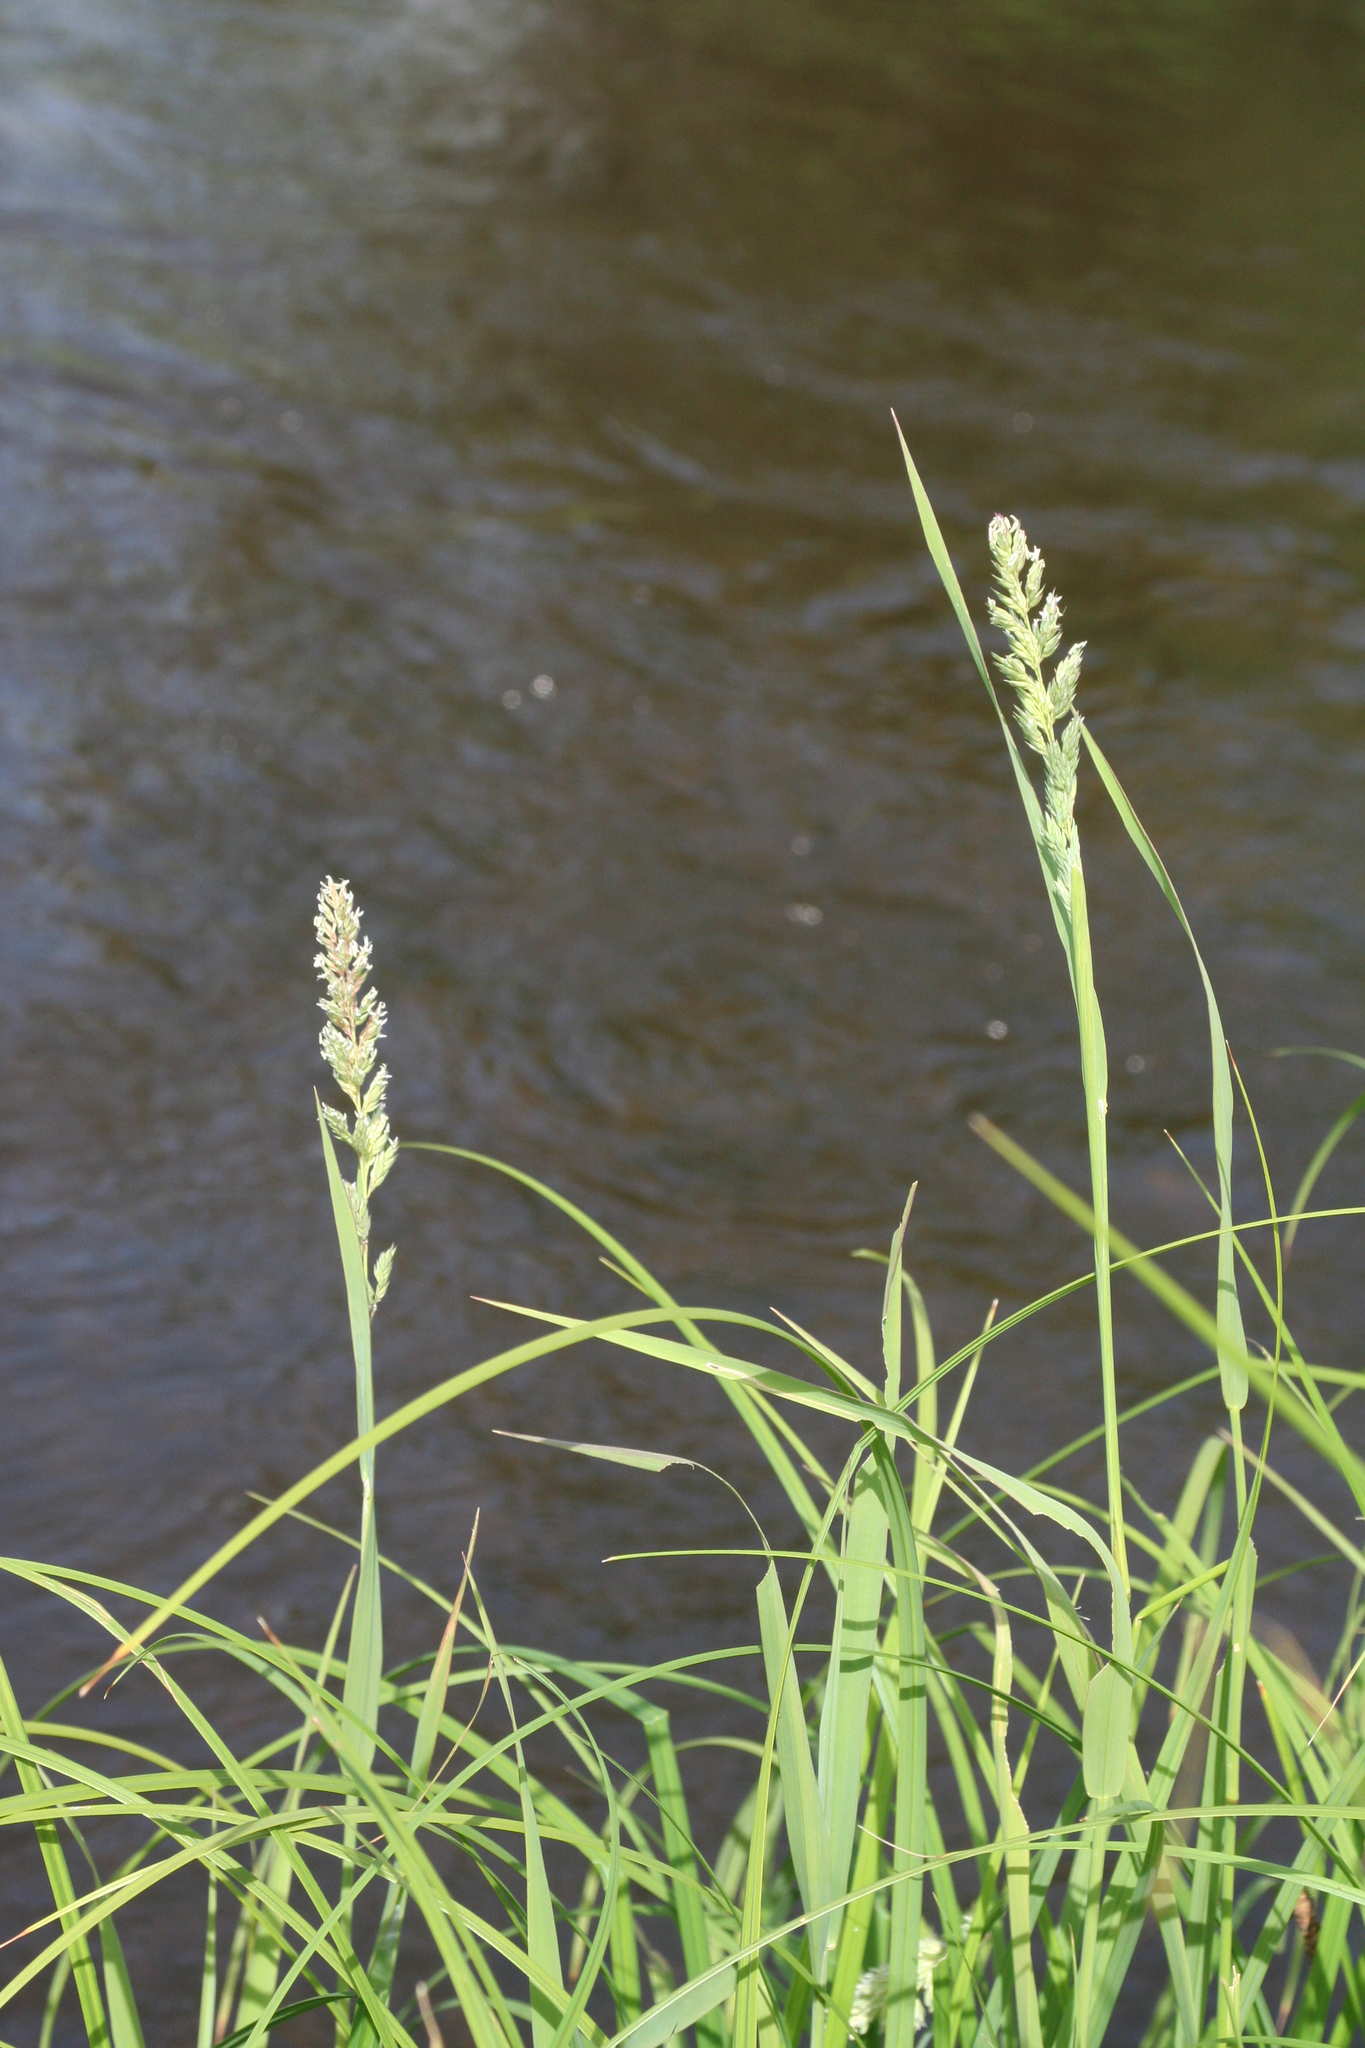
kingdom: Plantae
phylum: Tracheophyta
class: Liliopsida
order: Poales
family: Poaceae
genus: Phalaris
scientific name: Phalaris arundinacea
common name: Reed canary-grass
